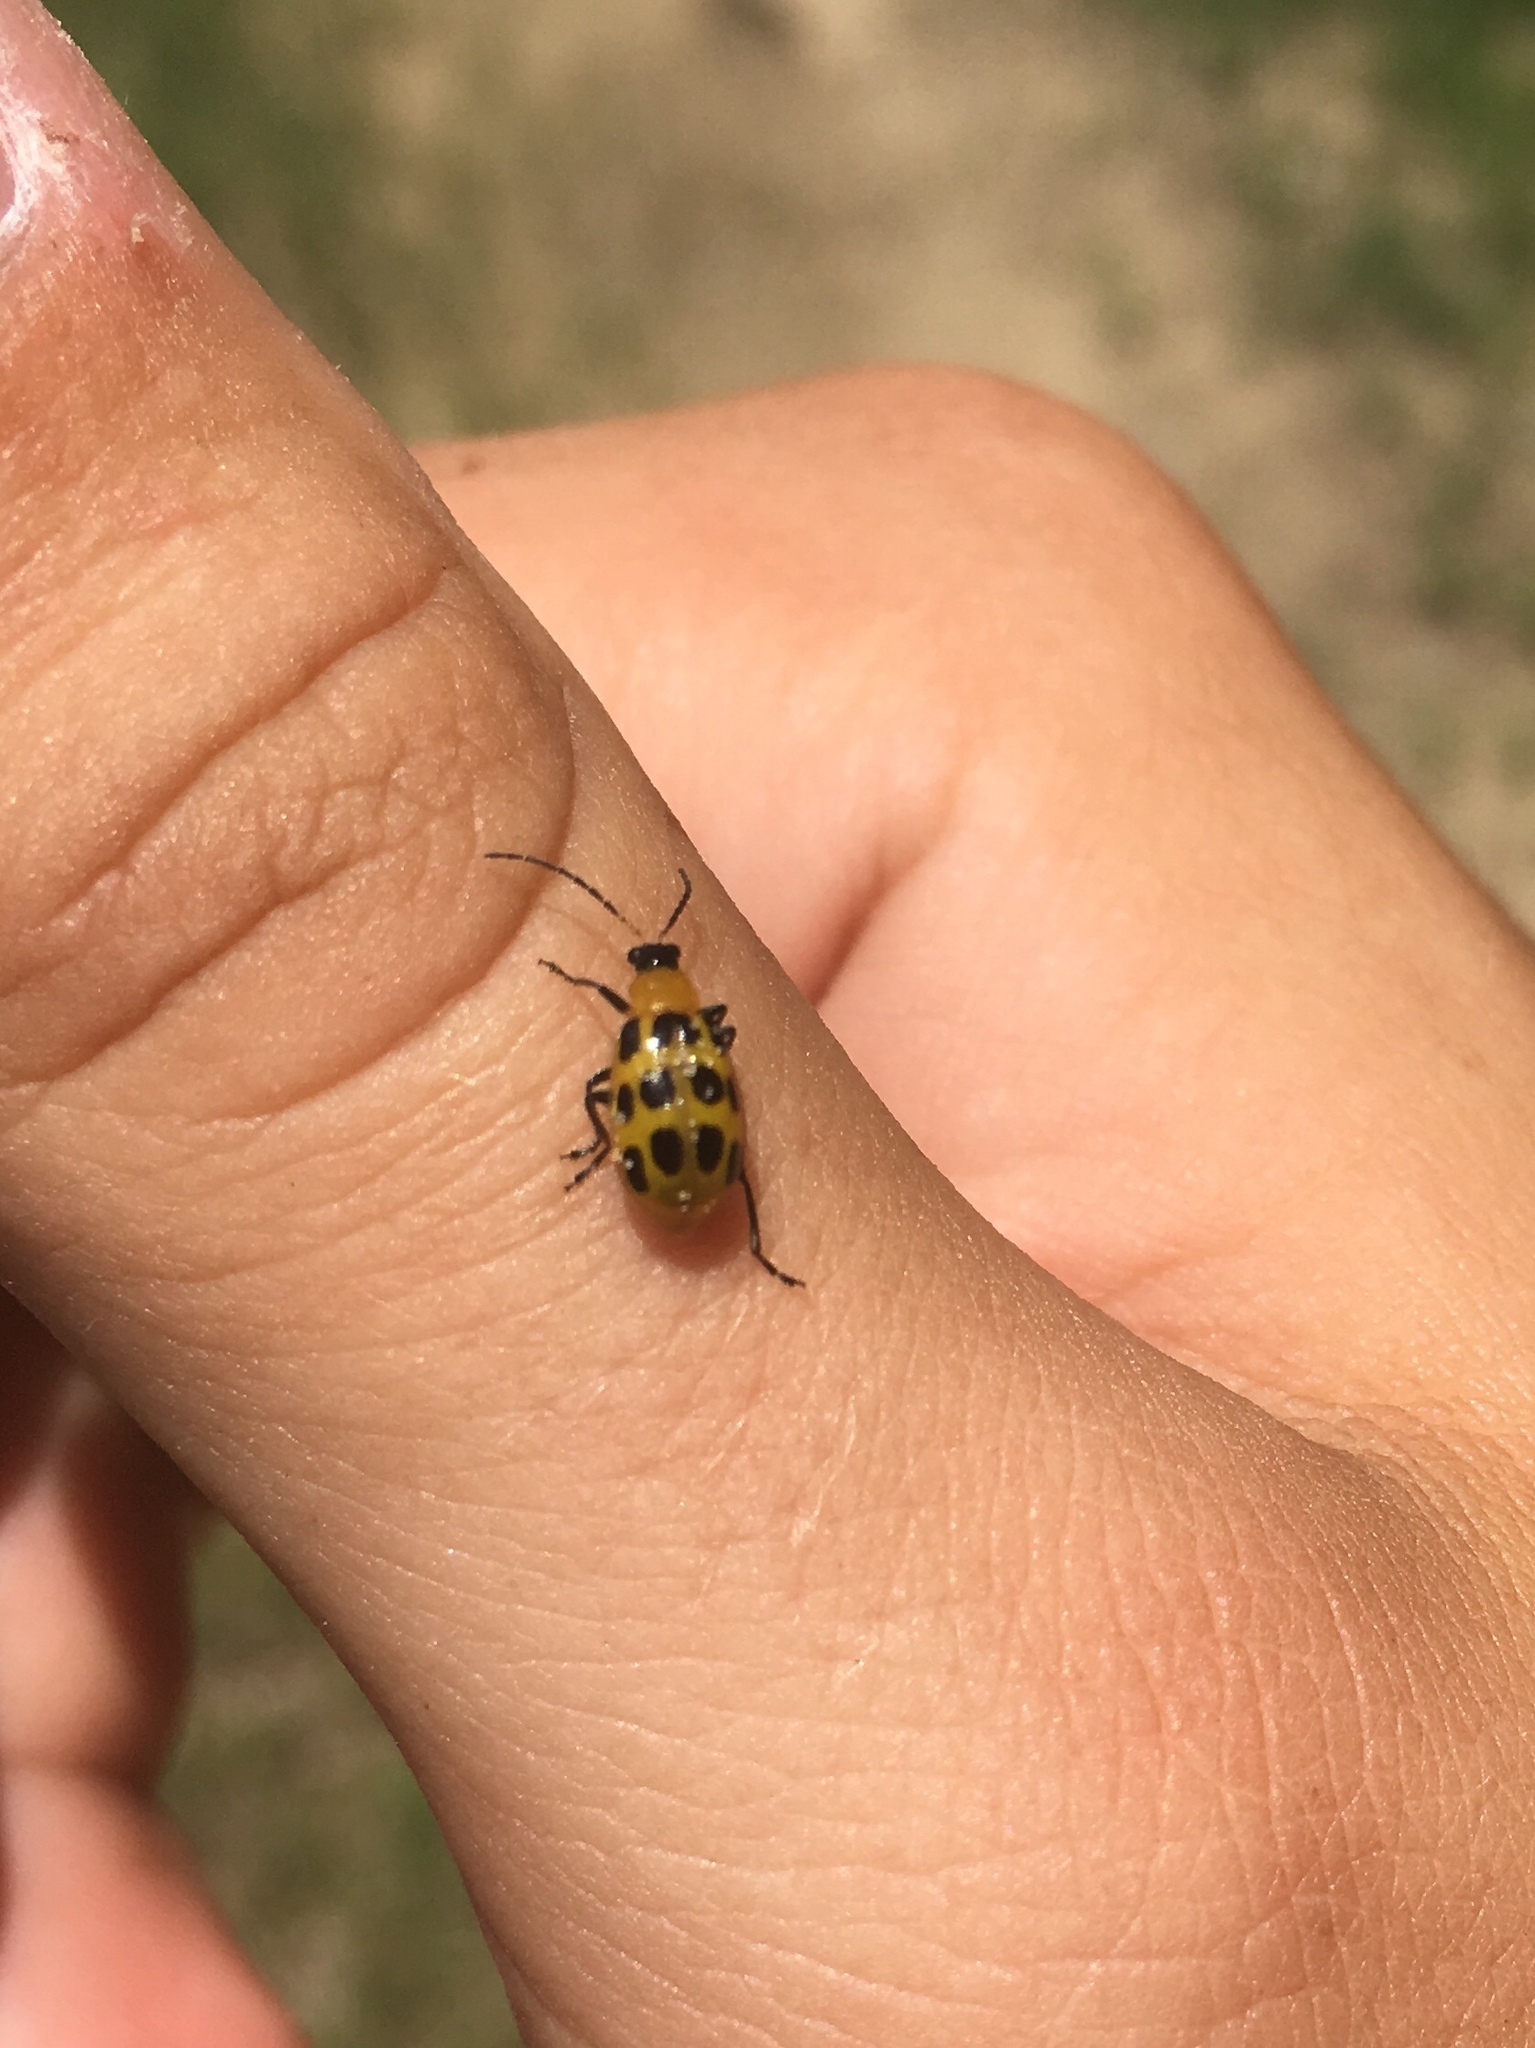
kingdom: Animalia
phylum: Arthropoda
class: Insecta
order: Coleoptera
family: Chrysomelidae
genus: Diabrotica
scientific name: Diabrotica undecimpunctata
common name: Spotted cucumber beetle
